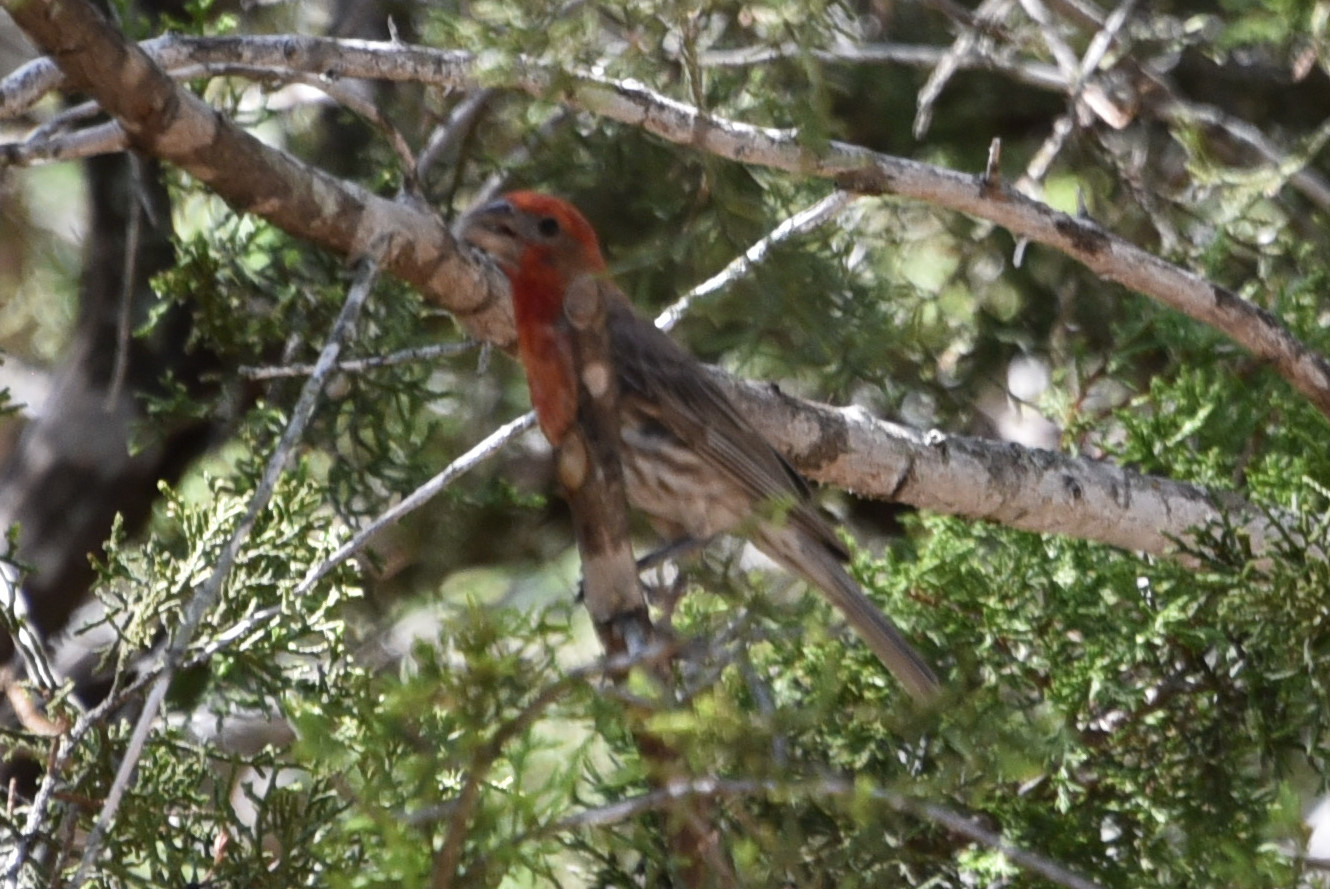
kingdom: Animalia
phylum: Chordata
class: Aves
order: Passeriformes
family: Fringillidae
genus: Haemorhous
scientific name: Haemorhous mexicanus
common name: House finch
